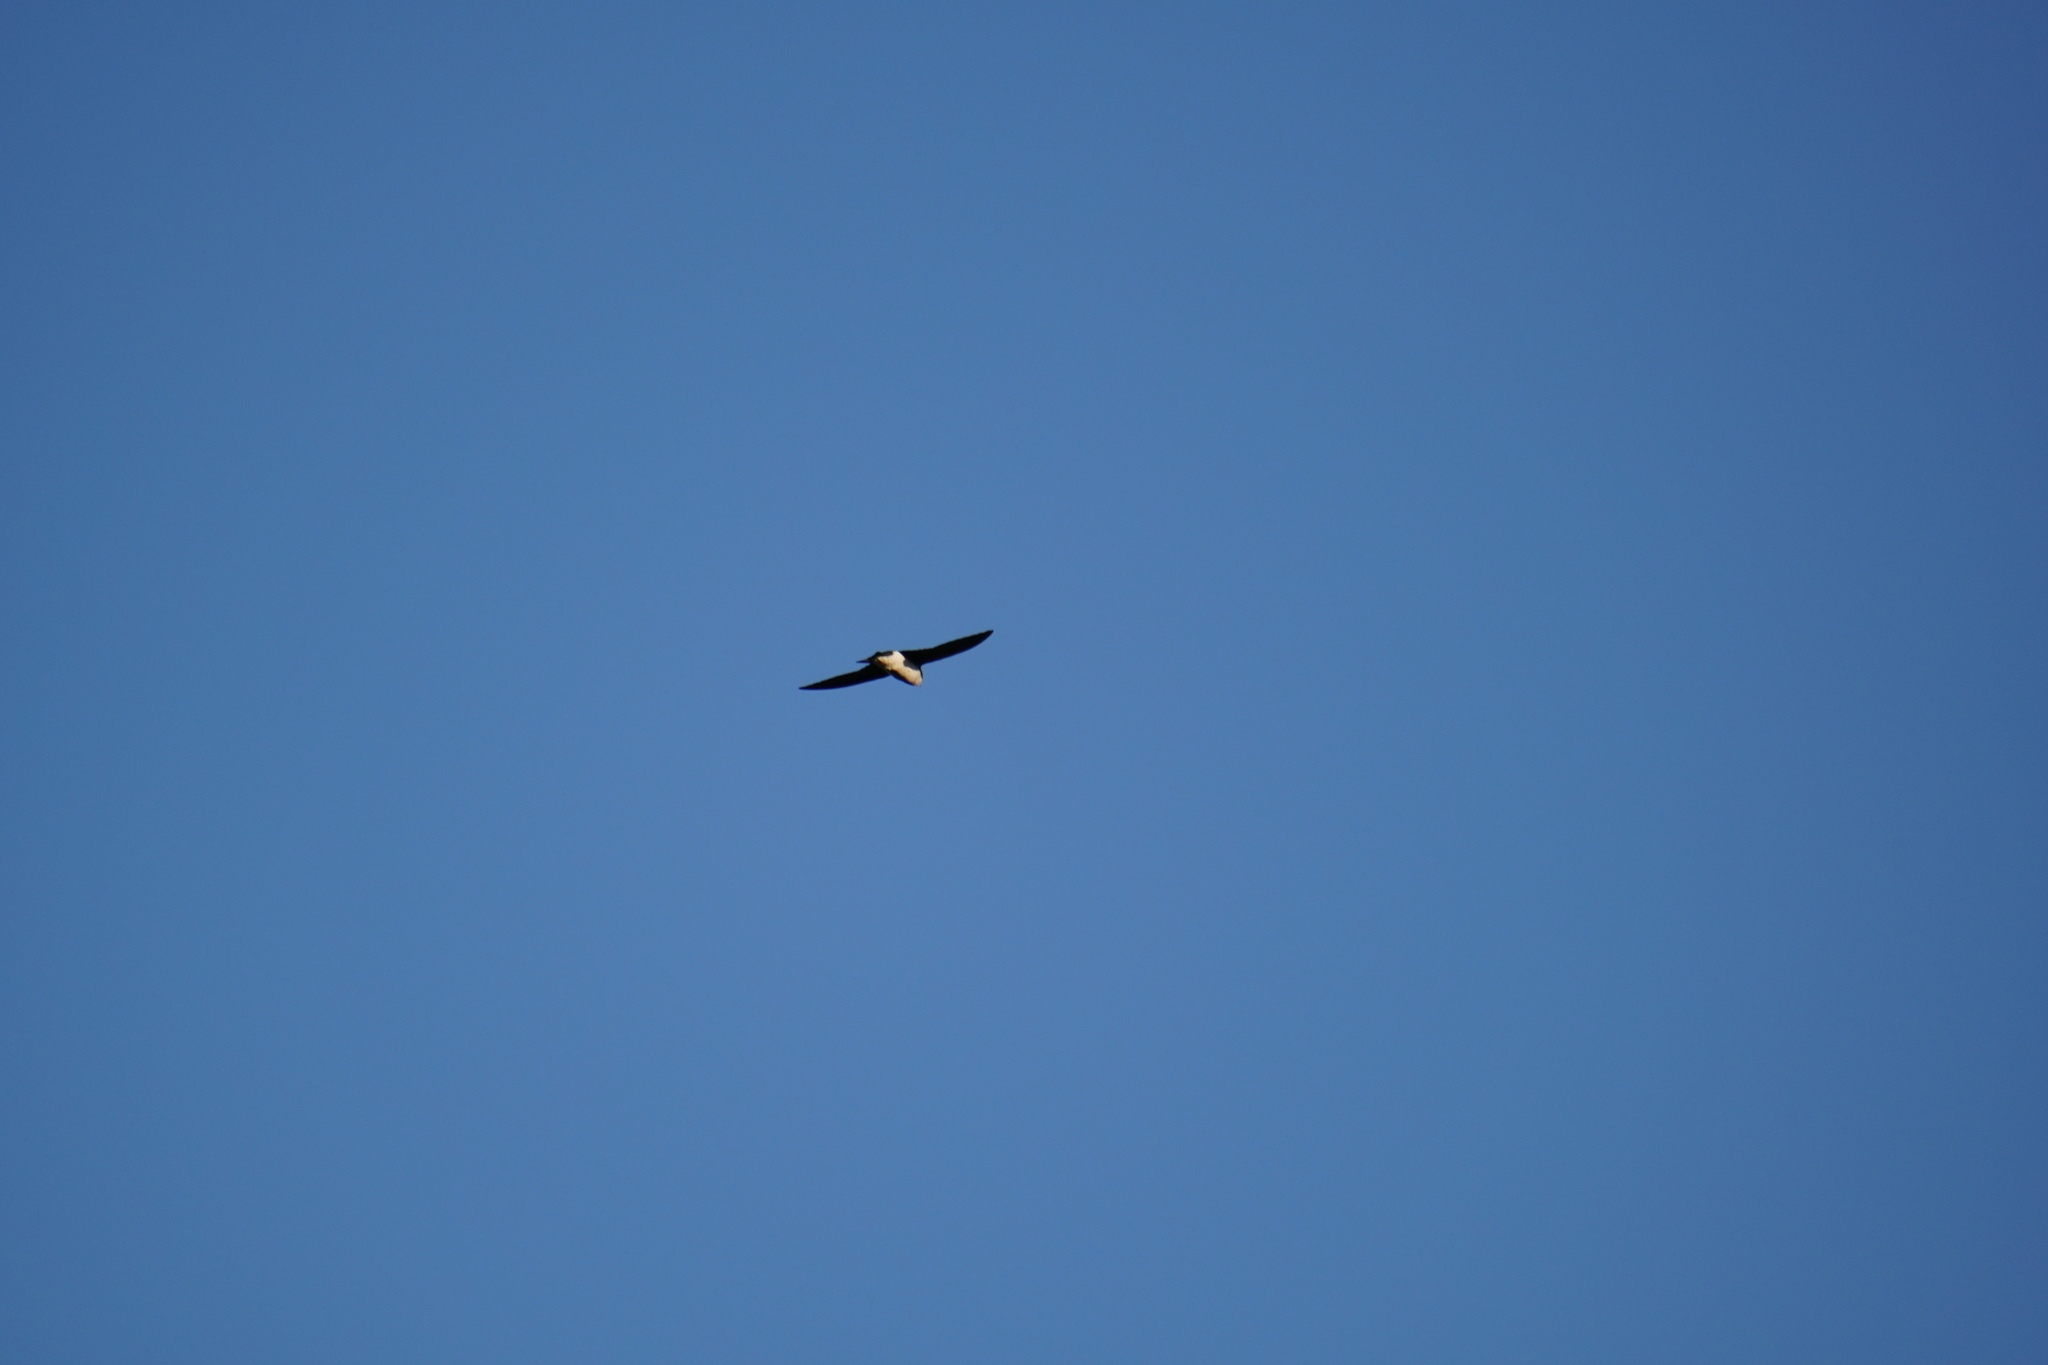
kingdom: Animalia
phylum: Chordata
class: Aves
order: Passeriformes
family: Hirundinidae
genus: Tachycineta
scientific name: Tachycineta bicolor
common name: Tree swallow
